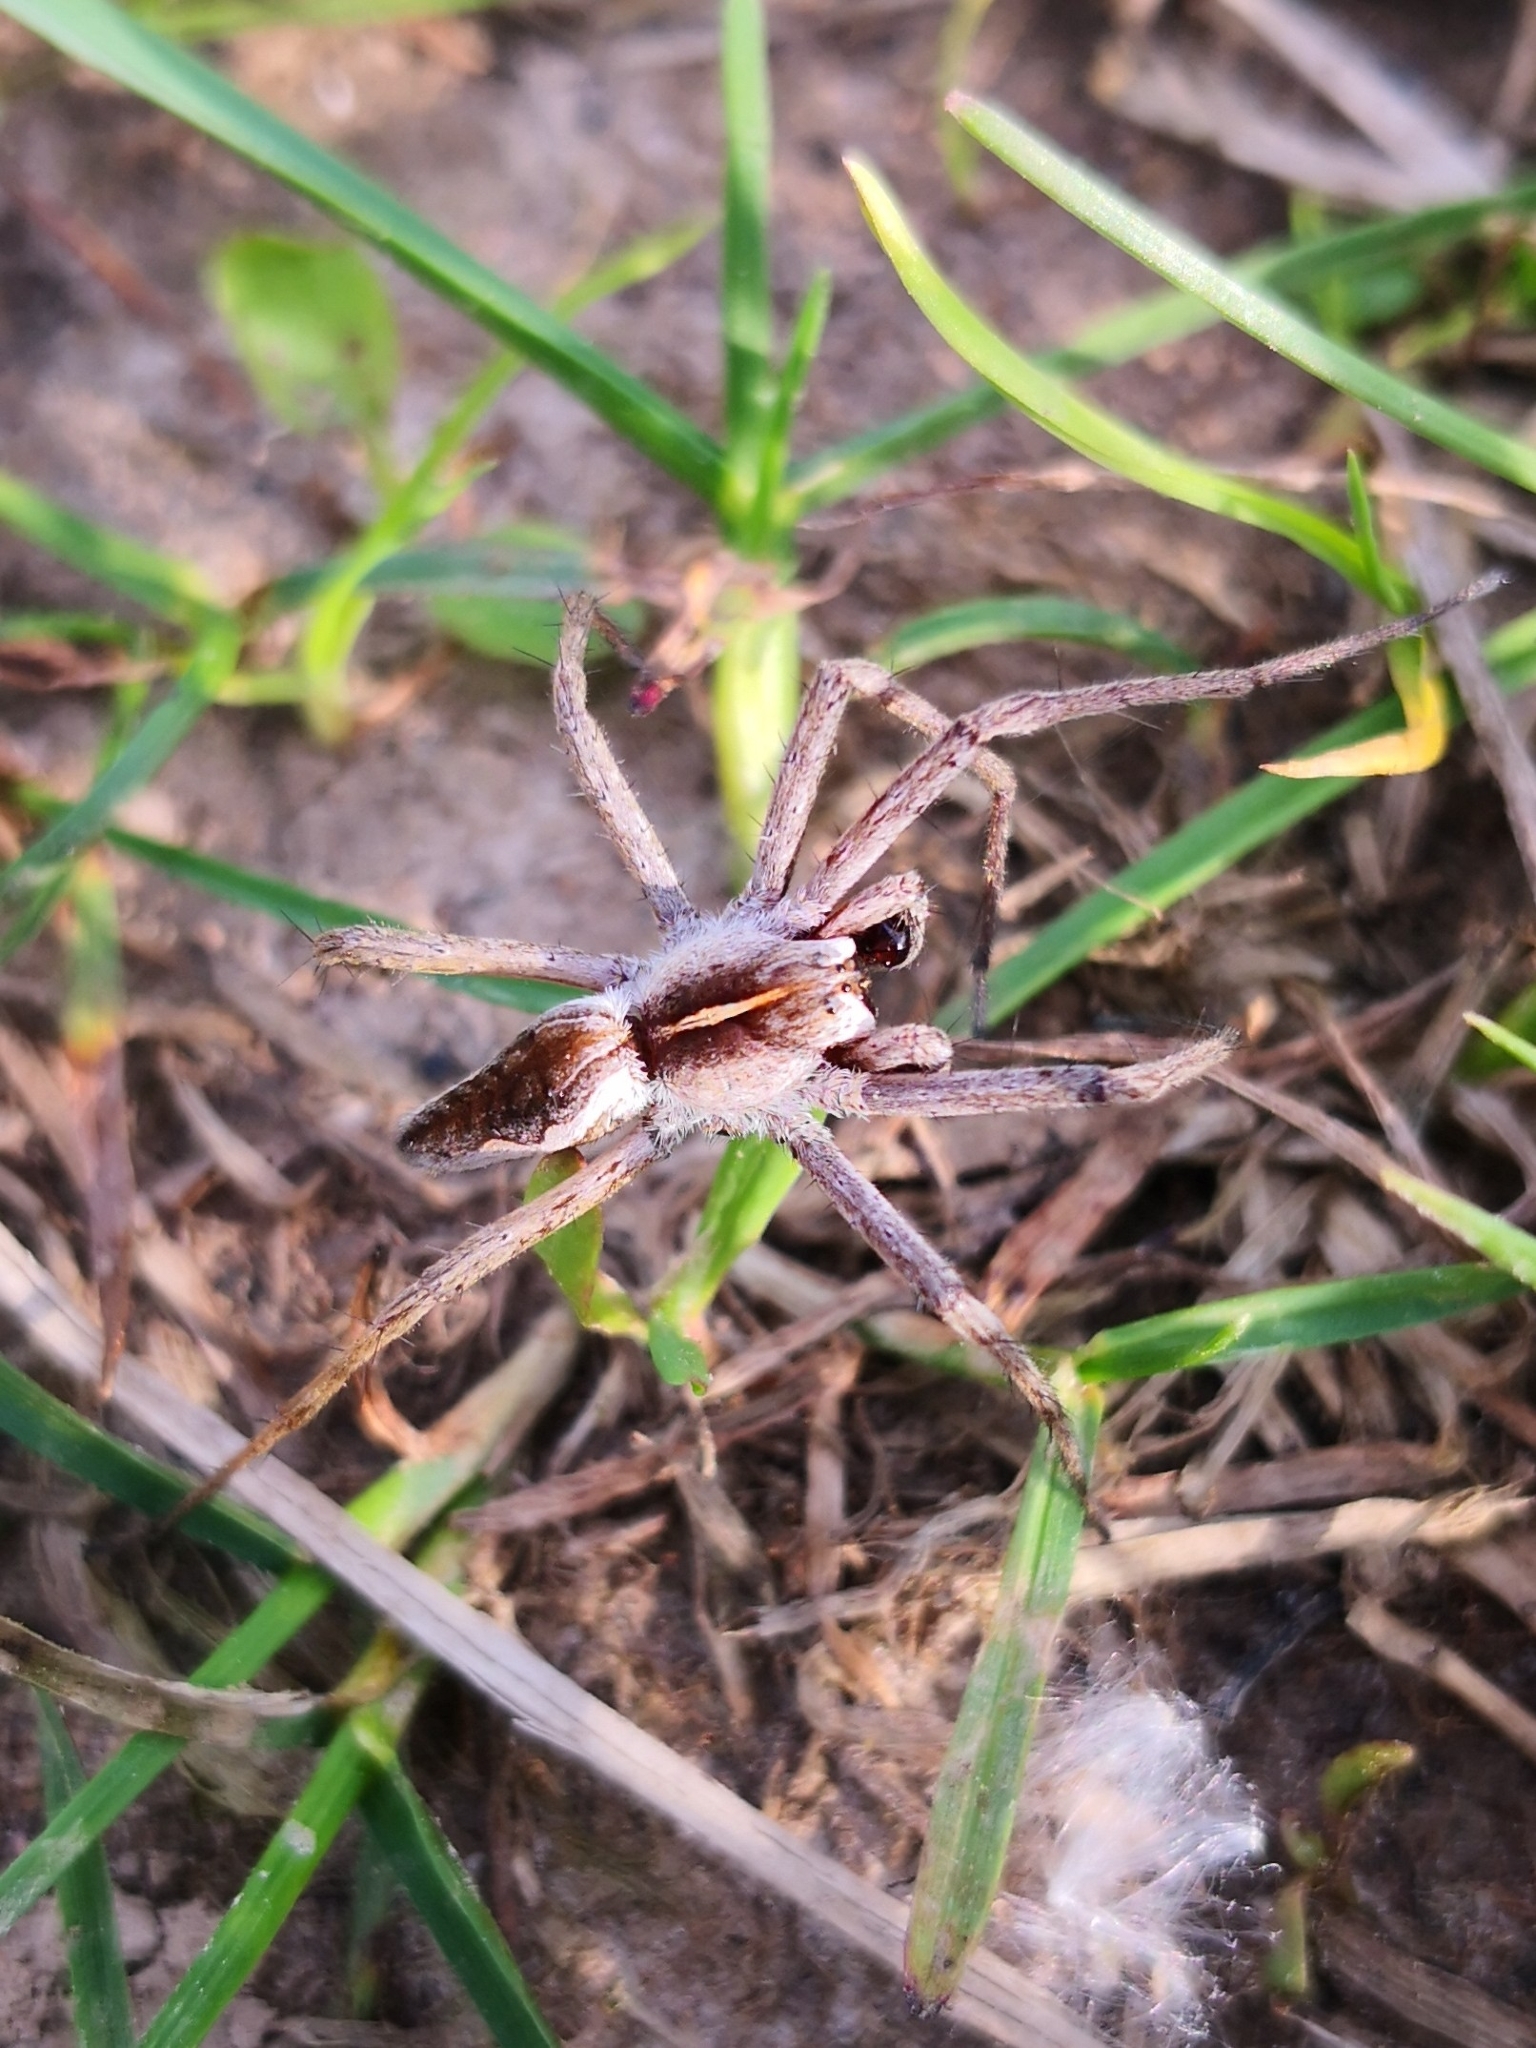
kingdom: Animalia
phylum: Arthropoda
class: Arachnida
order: Araneae
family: Pisauridae
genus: Pisaura
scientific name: Pisaura mirabilis
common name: Tent spider
